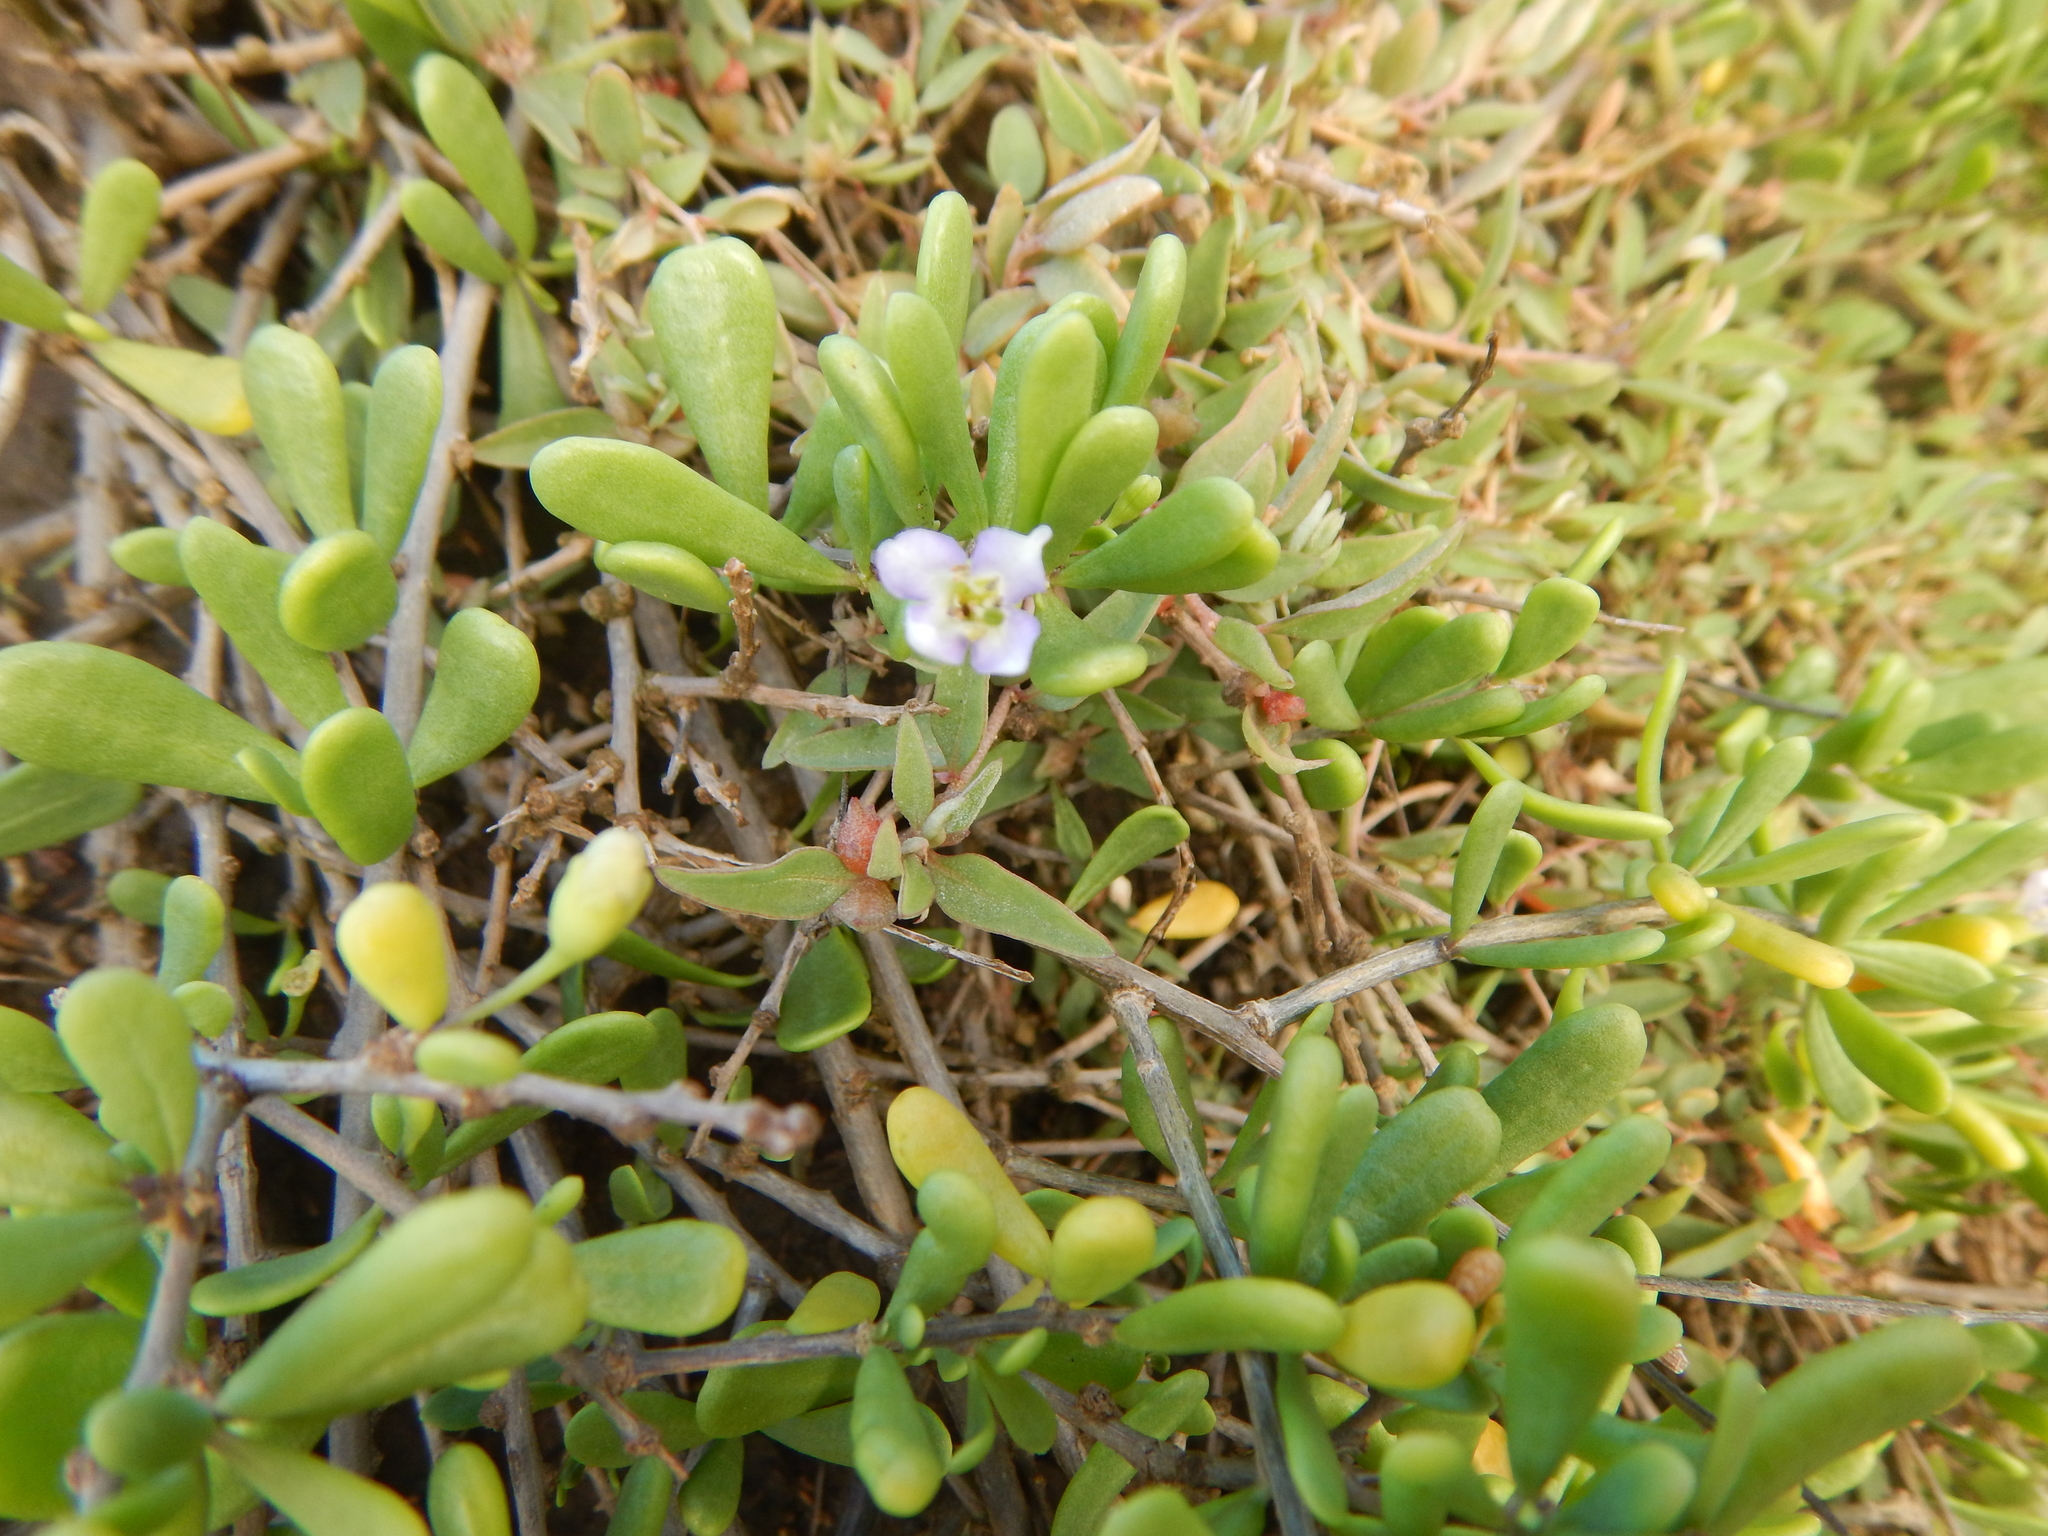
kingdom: Plantae
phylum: Tracheophyta
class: Magnoliopsida
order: Caryophyllales
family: Aizoaceae
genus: Sesuvium
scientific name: Sesuvium portulacastrum
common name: Sea-purslane
